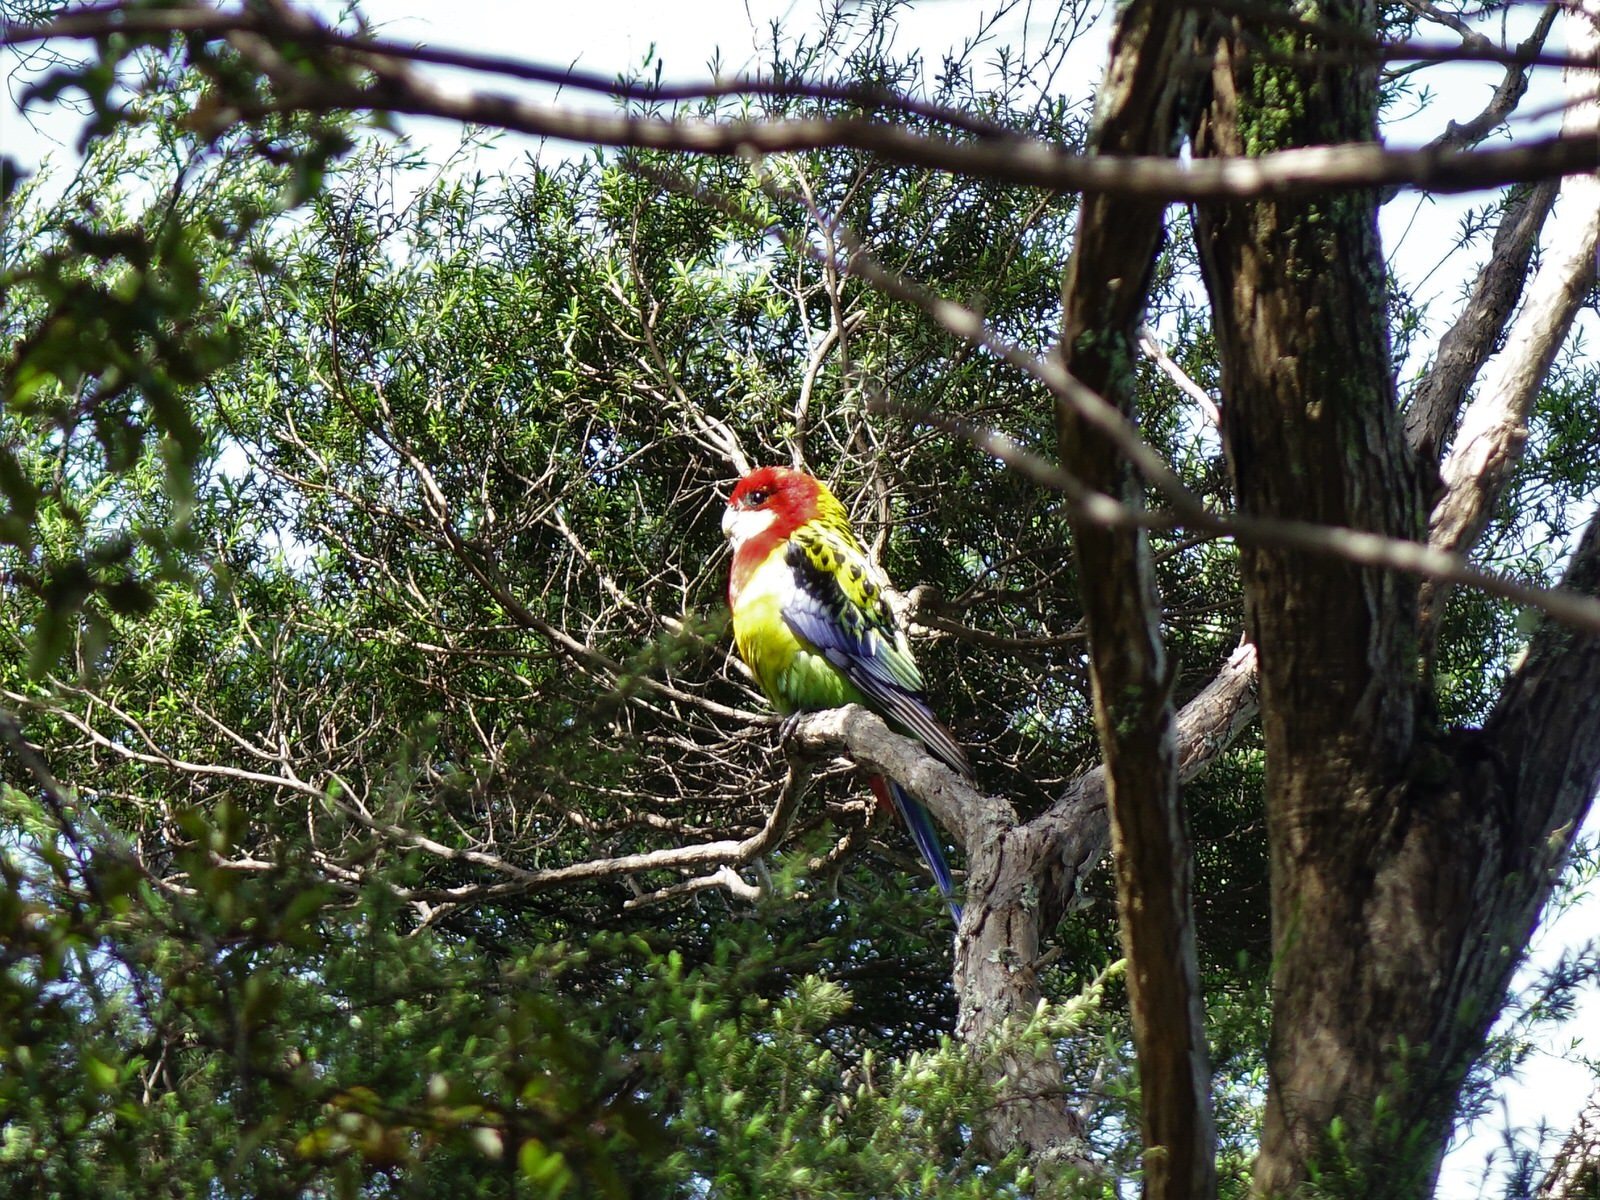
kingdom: Animalia
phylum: Chordata
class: Aves
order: Psittaciformes
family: Psittacidae
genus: Platycercus
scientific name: Platycercus eximius
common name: Eastern rosella
